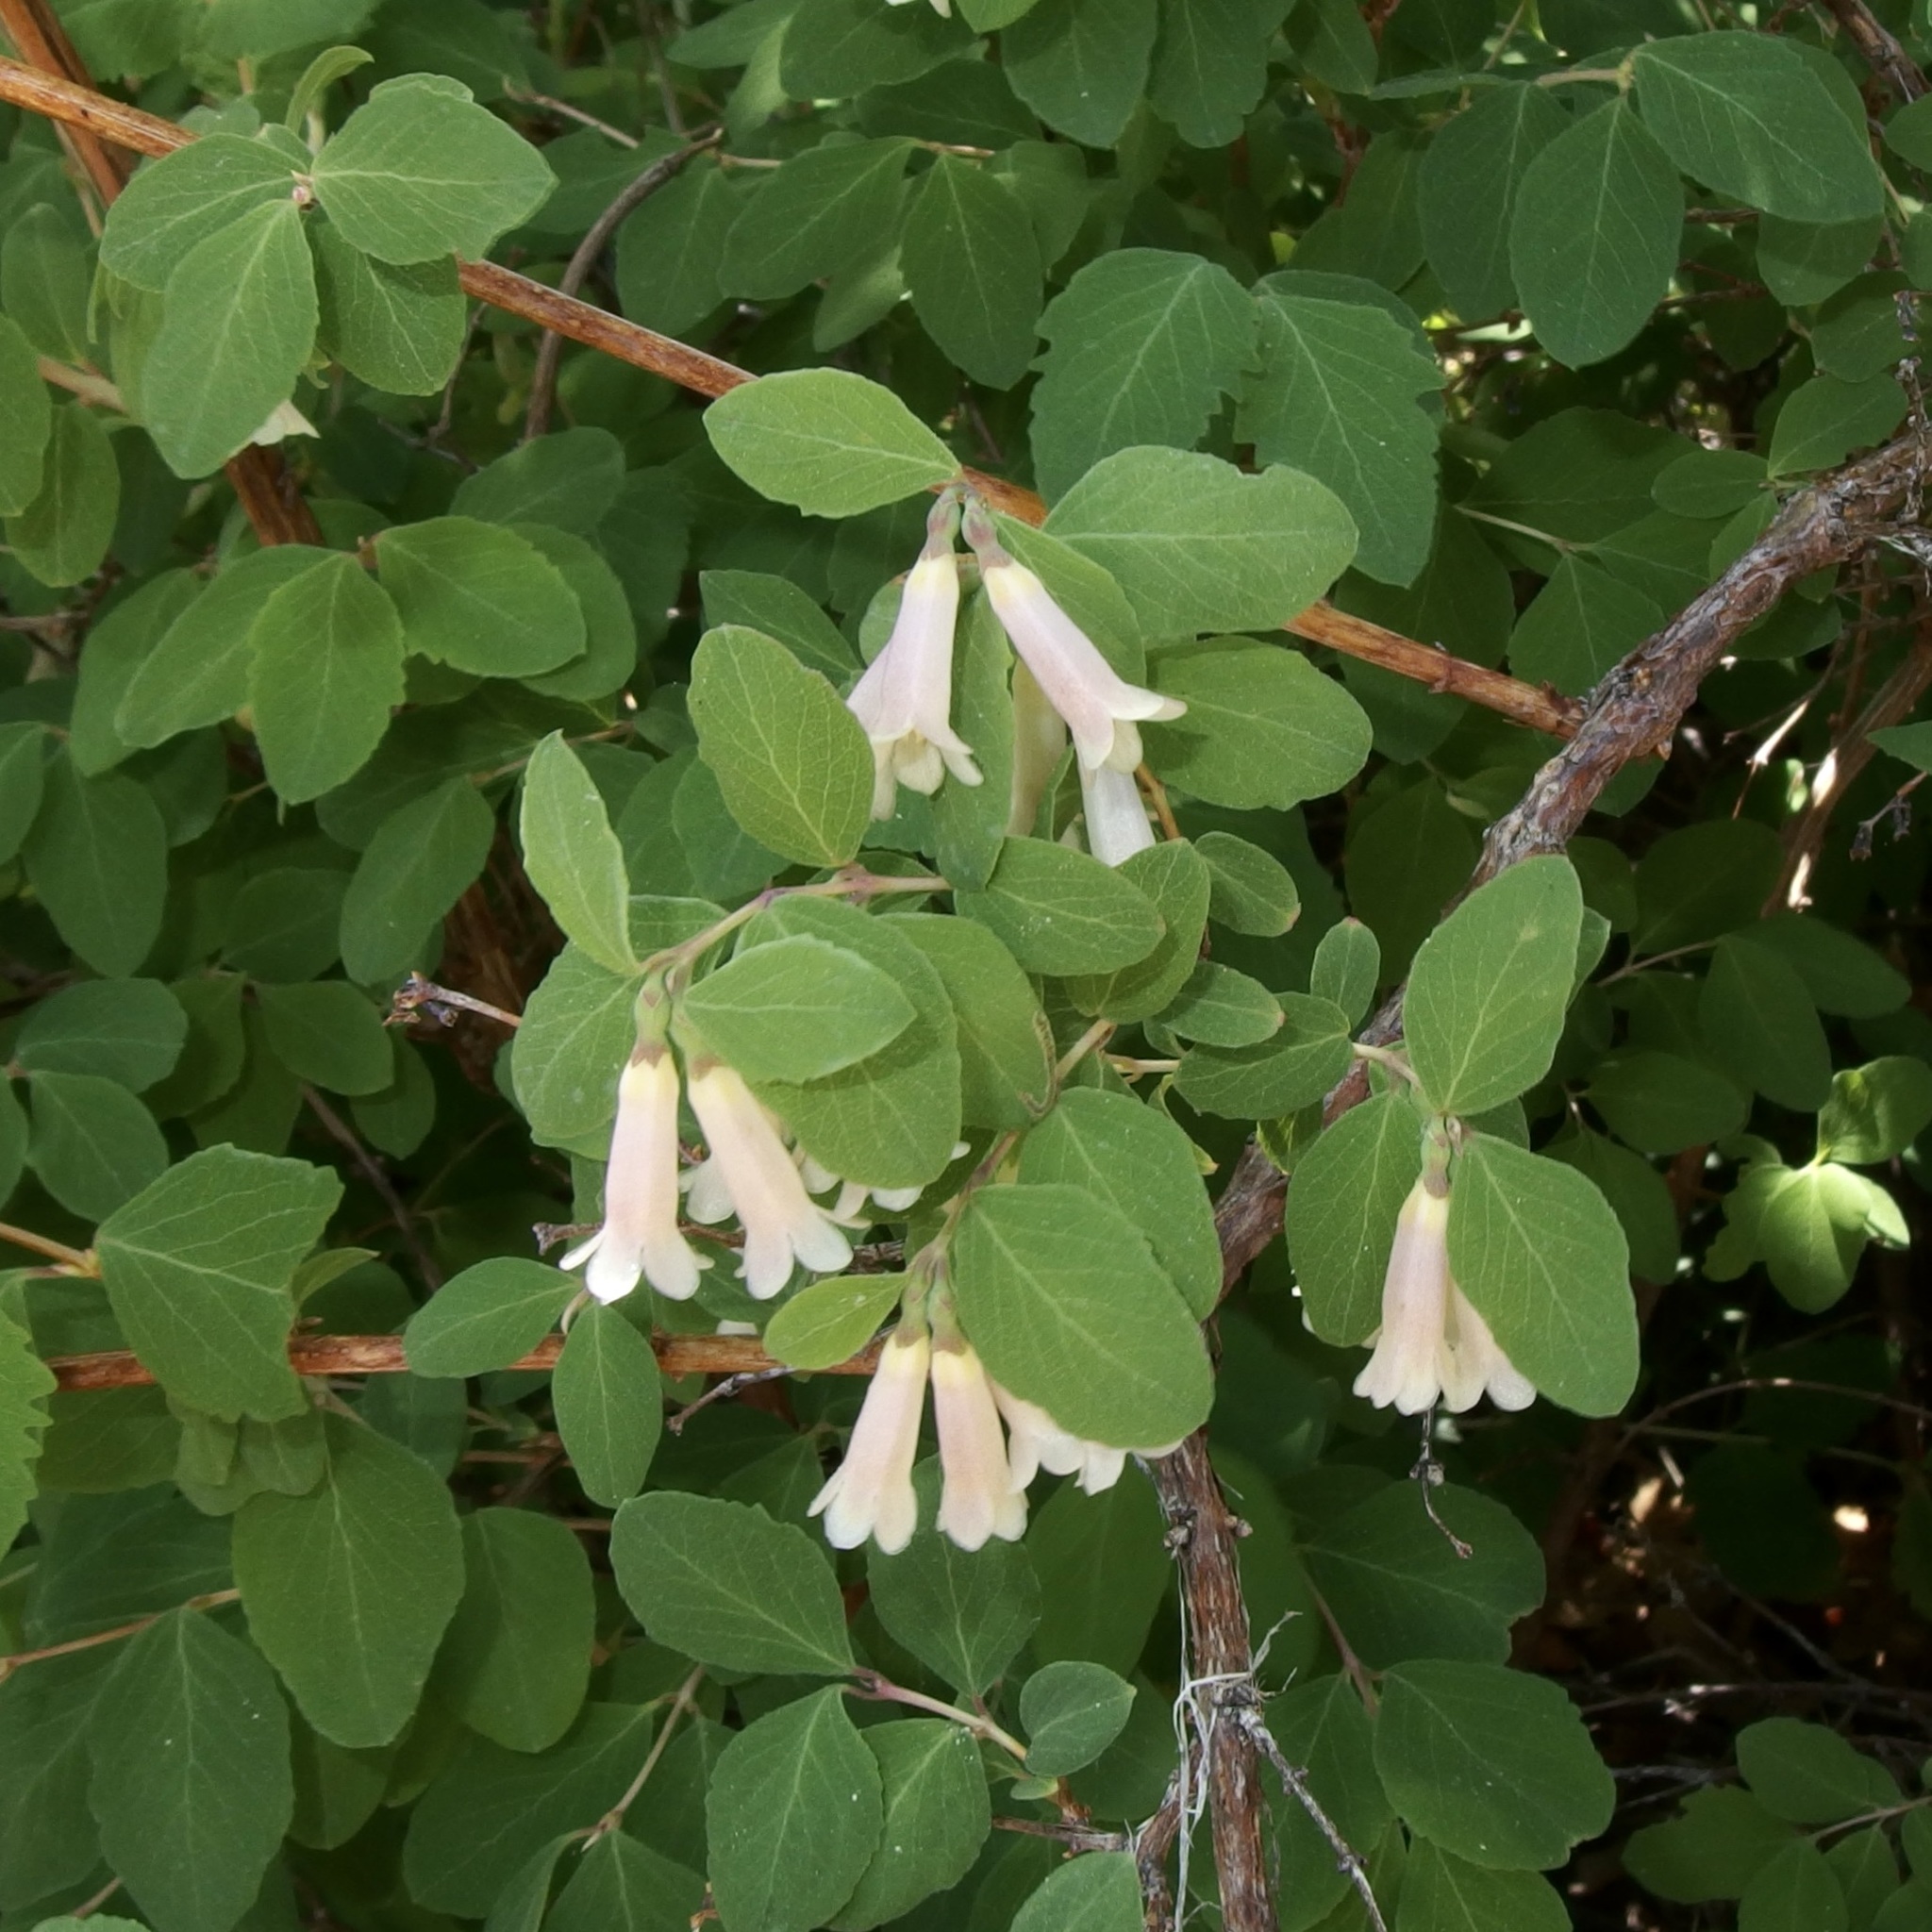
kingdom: Plantae
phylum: Tracheophyta
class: Magnoliopsida
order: Dipsacales
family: Caprifoliaceae
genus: Symphoricarpos
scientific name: Symphoricarpos rotundifolius
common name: Round-leaved snowberry
